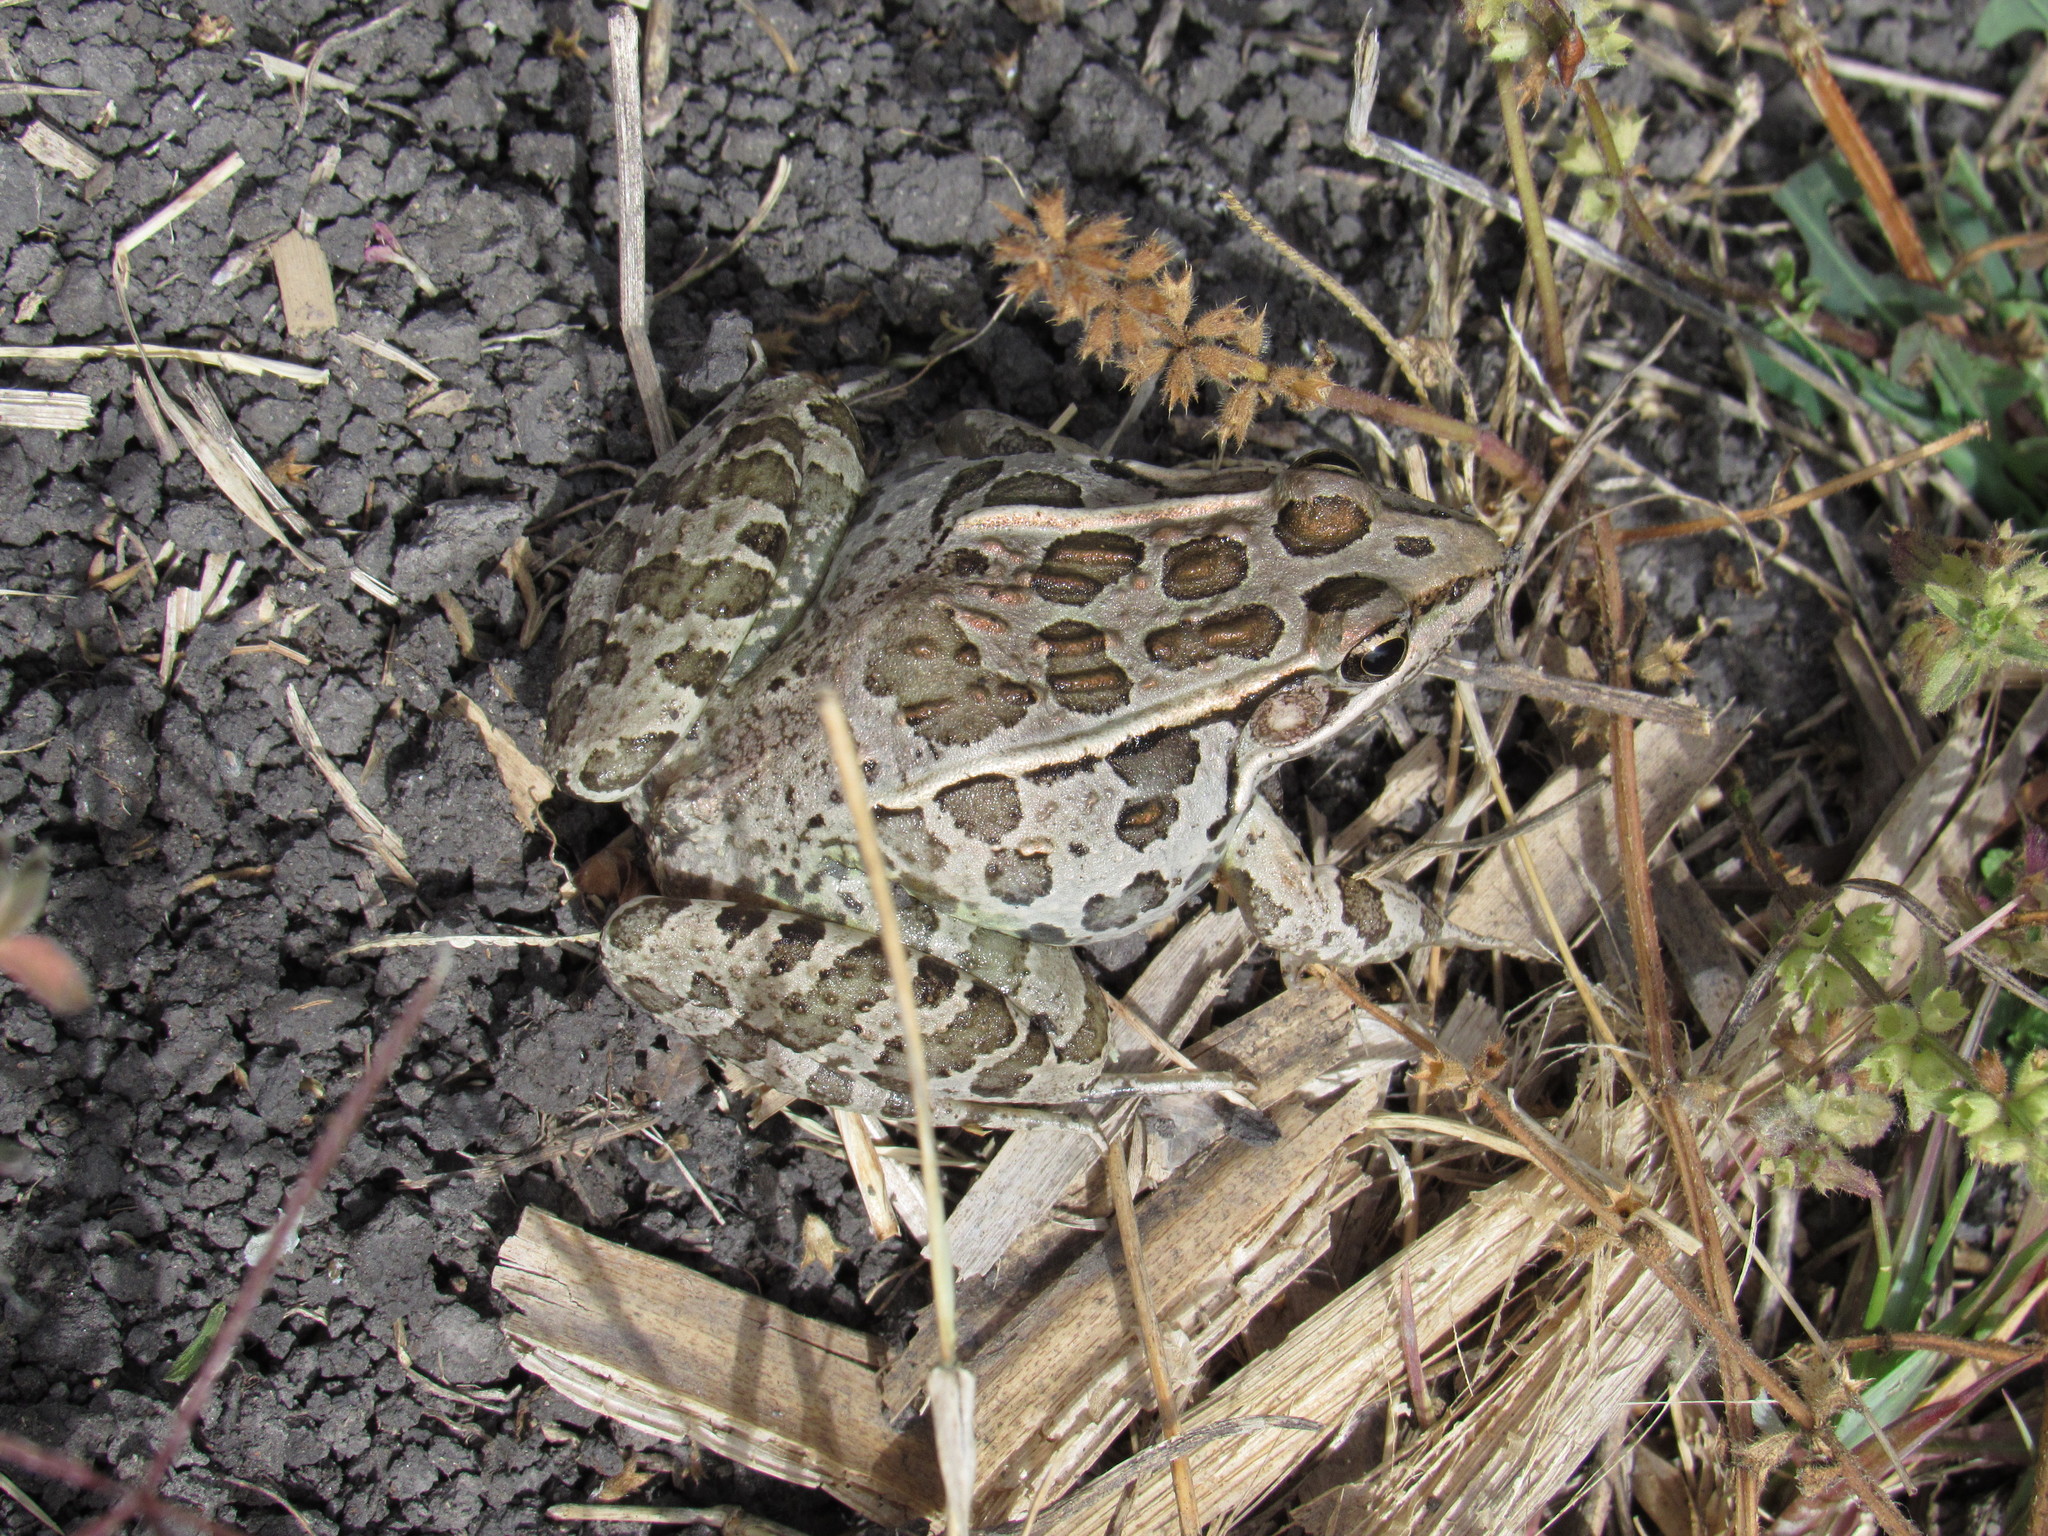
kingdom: Animalia
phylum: Chordata
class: Amphibia
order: Anura
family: Ranidae
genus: Lithobates
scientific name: Lithobates neovolcanicus
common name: Transverse volcanic leopard frog
